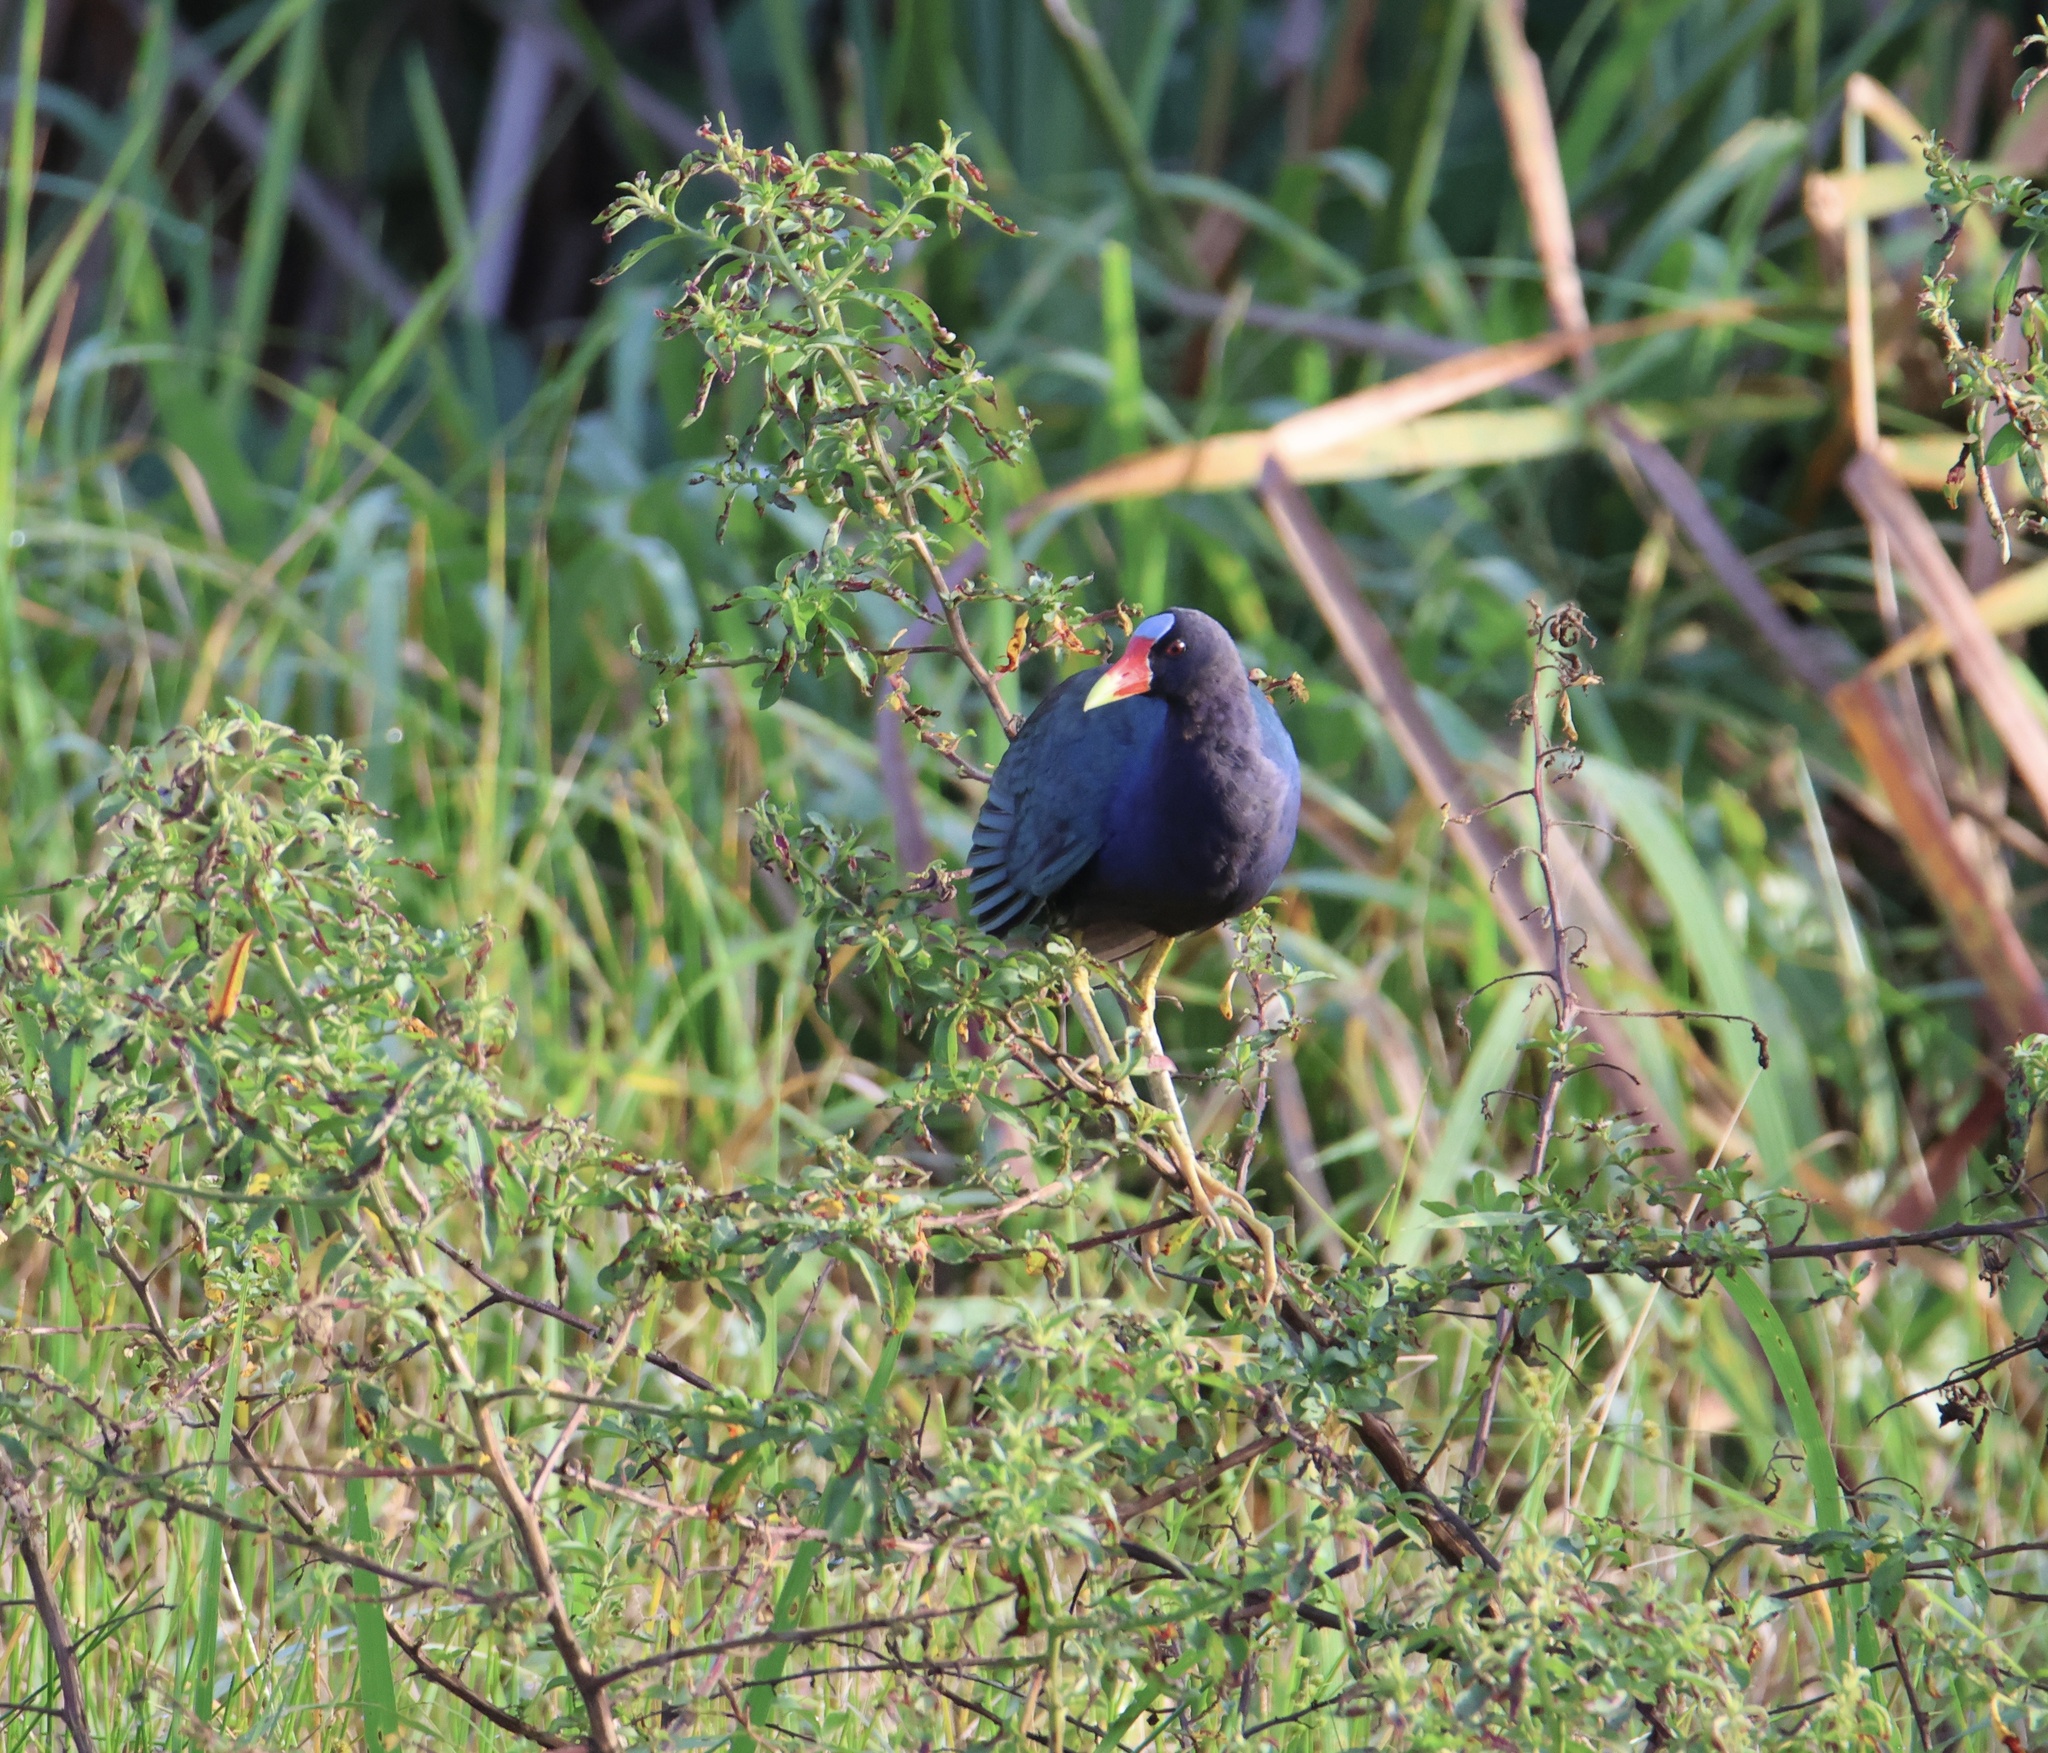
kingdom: Animalia
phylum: Chordata
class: Aves
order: Gruiformes
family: Rallidae
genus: Porphyrio
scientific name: Porphyrio martinica
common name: Purple gallinule
